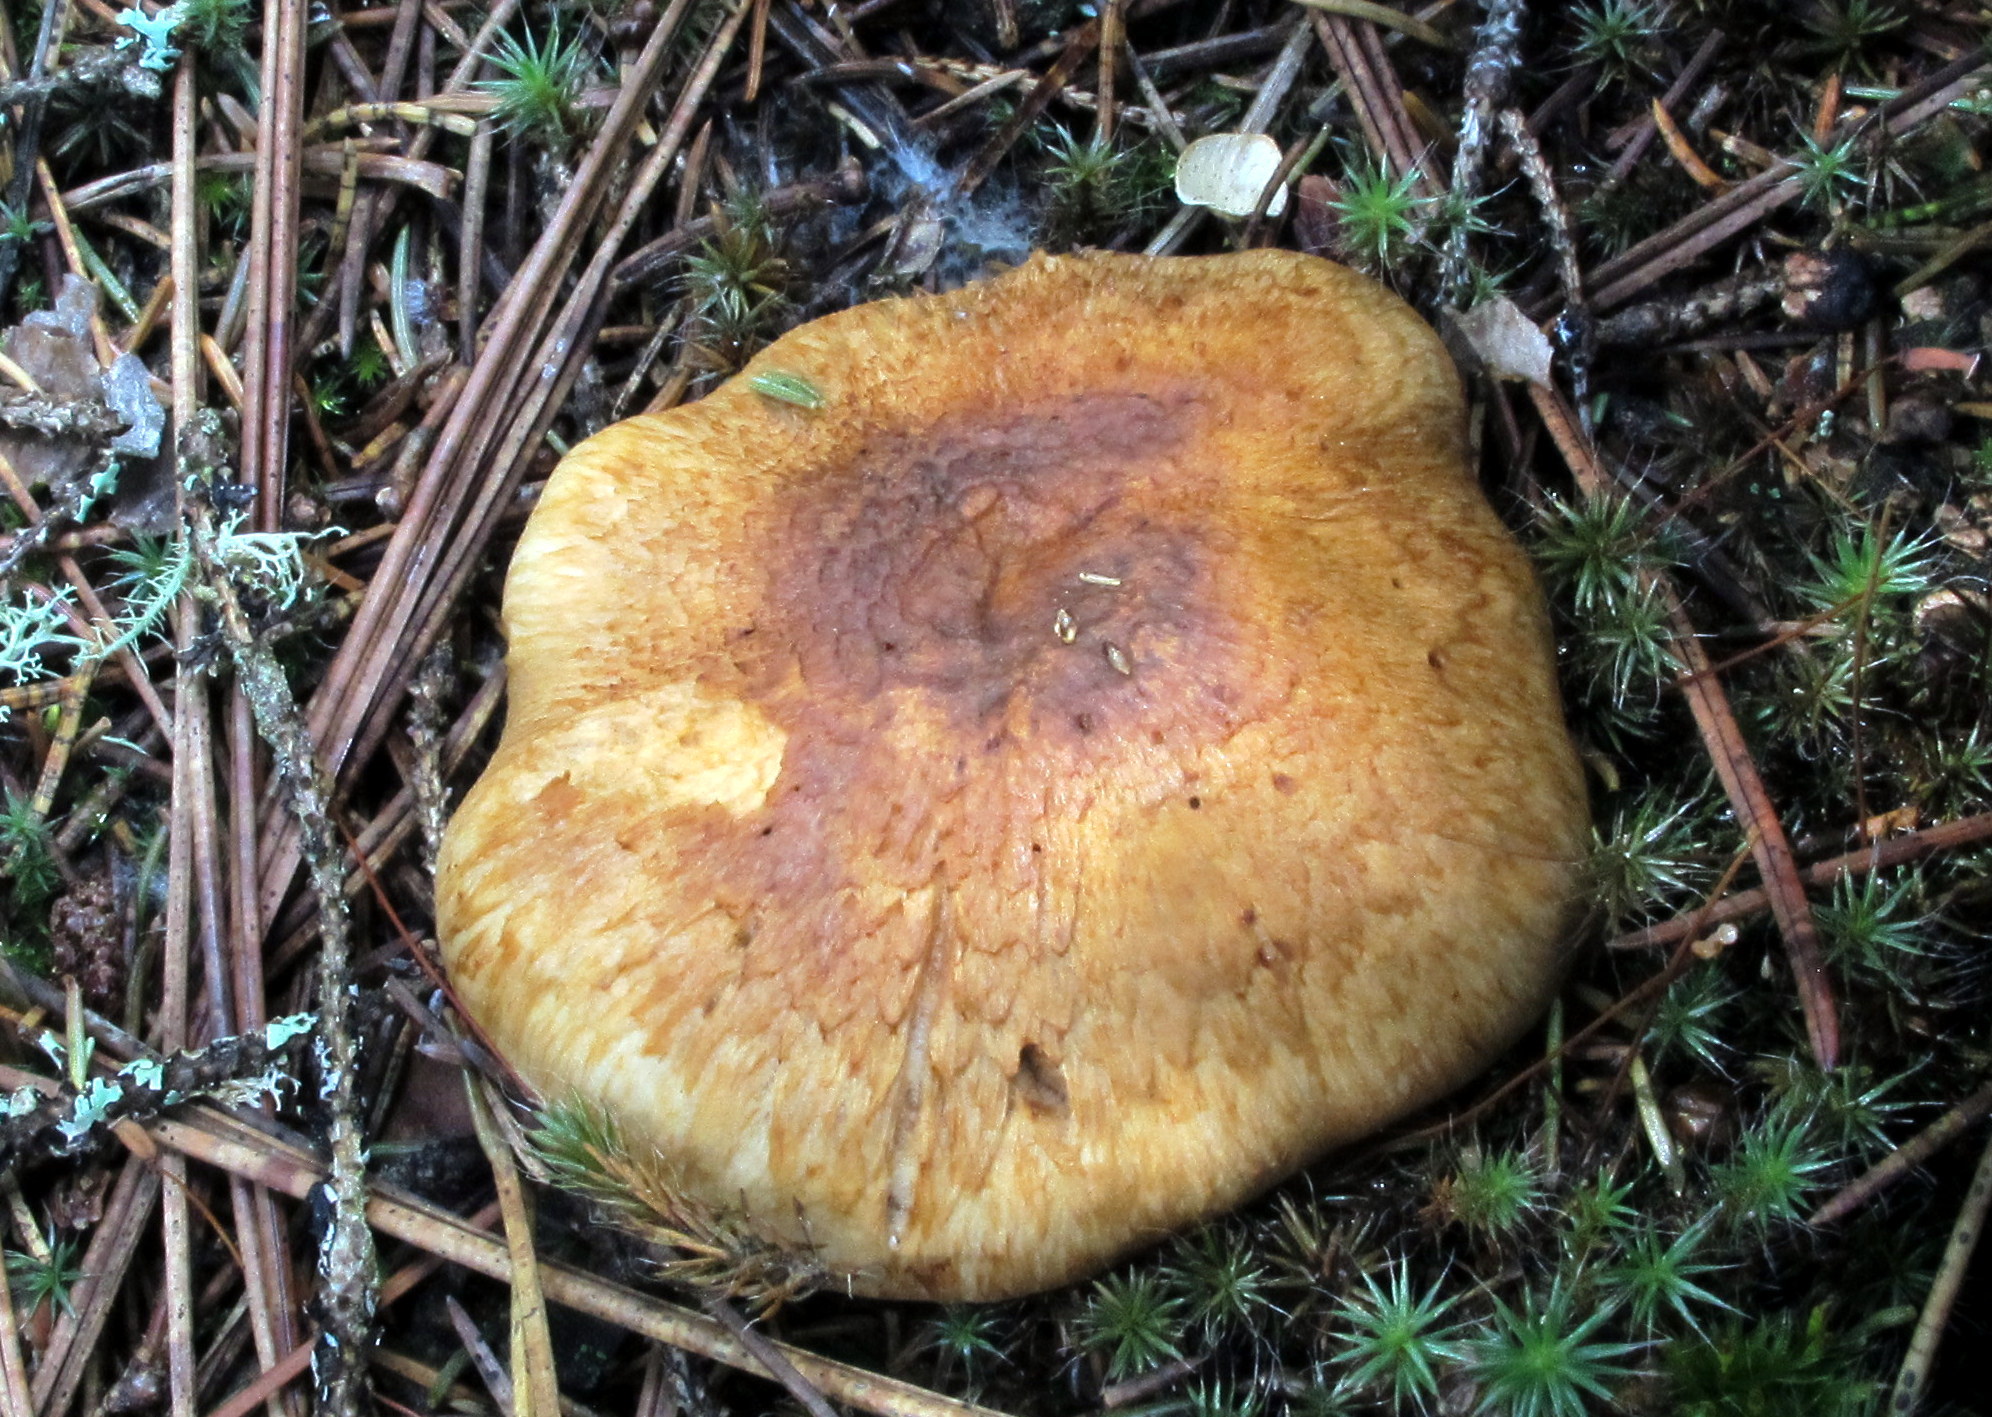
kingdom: Fungi
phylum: Basidiomycota
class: Agaricomycetes
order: Agaricales
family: Tricholomataceae
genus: Tricholoma
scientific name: Tricholoma focale
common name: Booted knight
